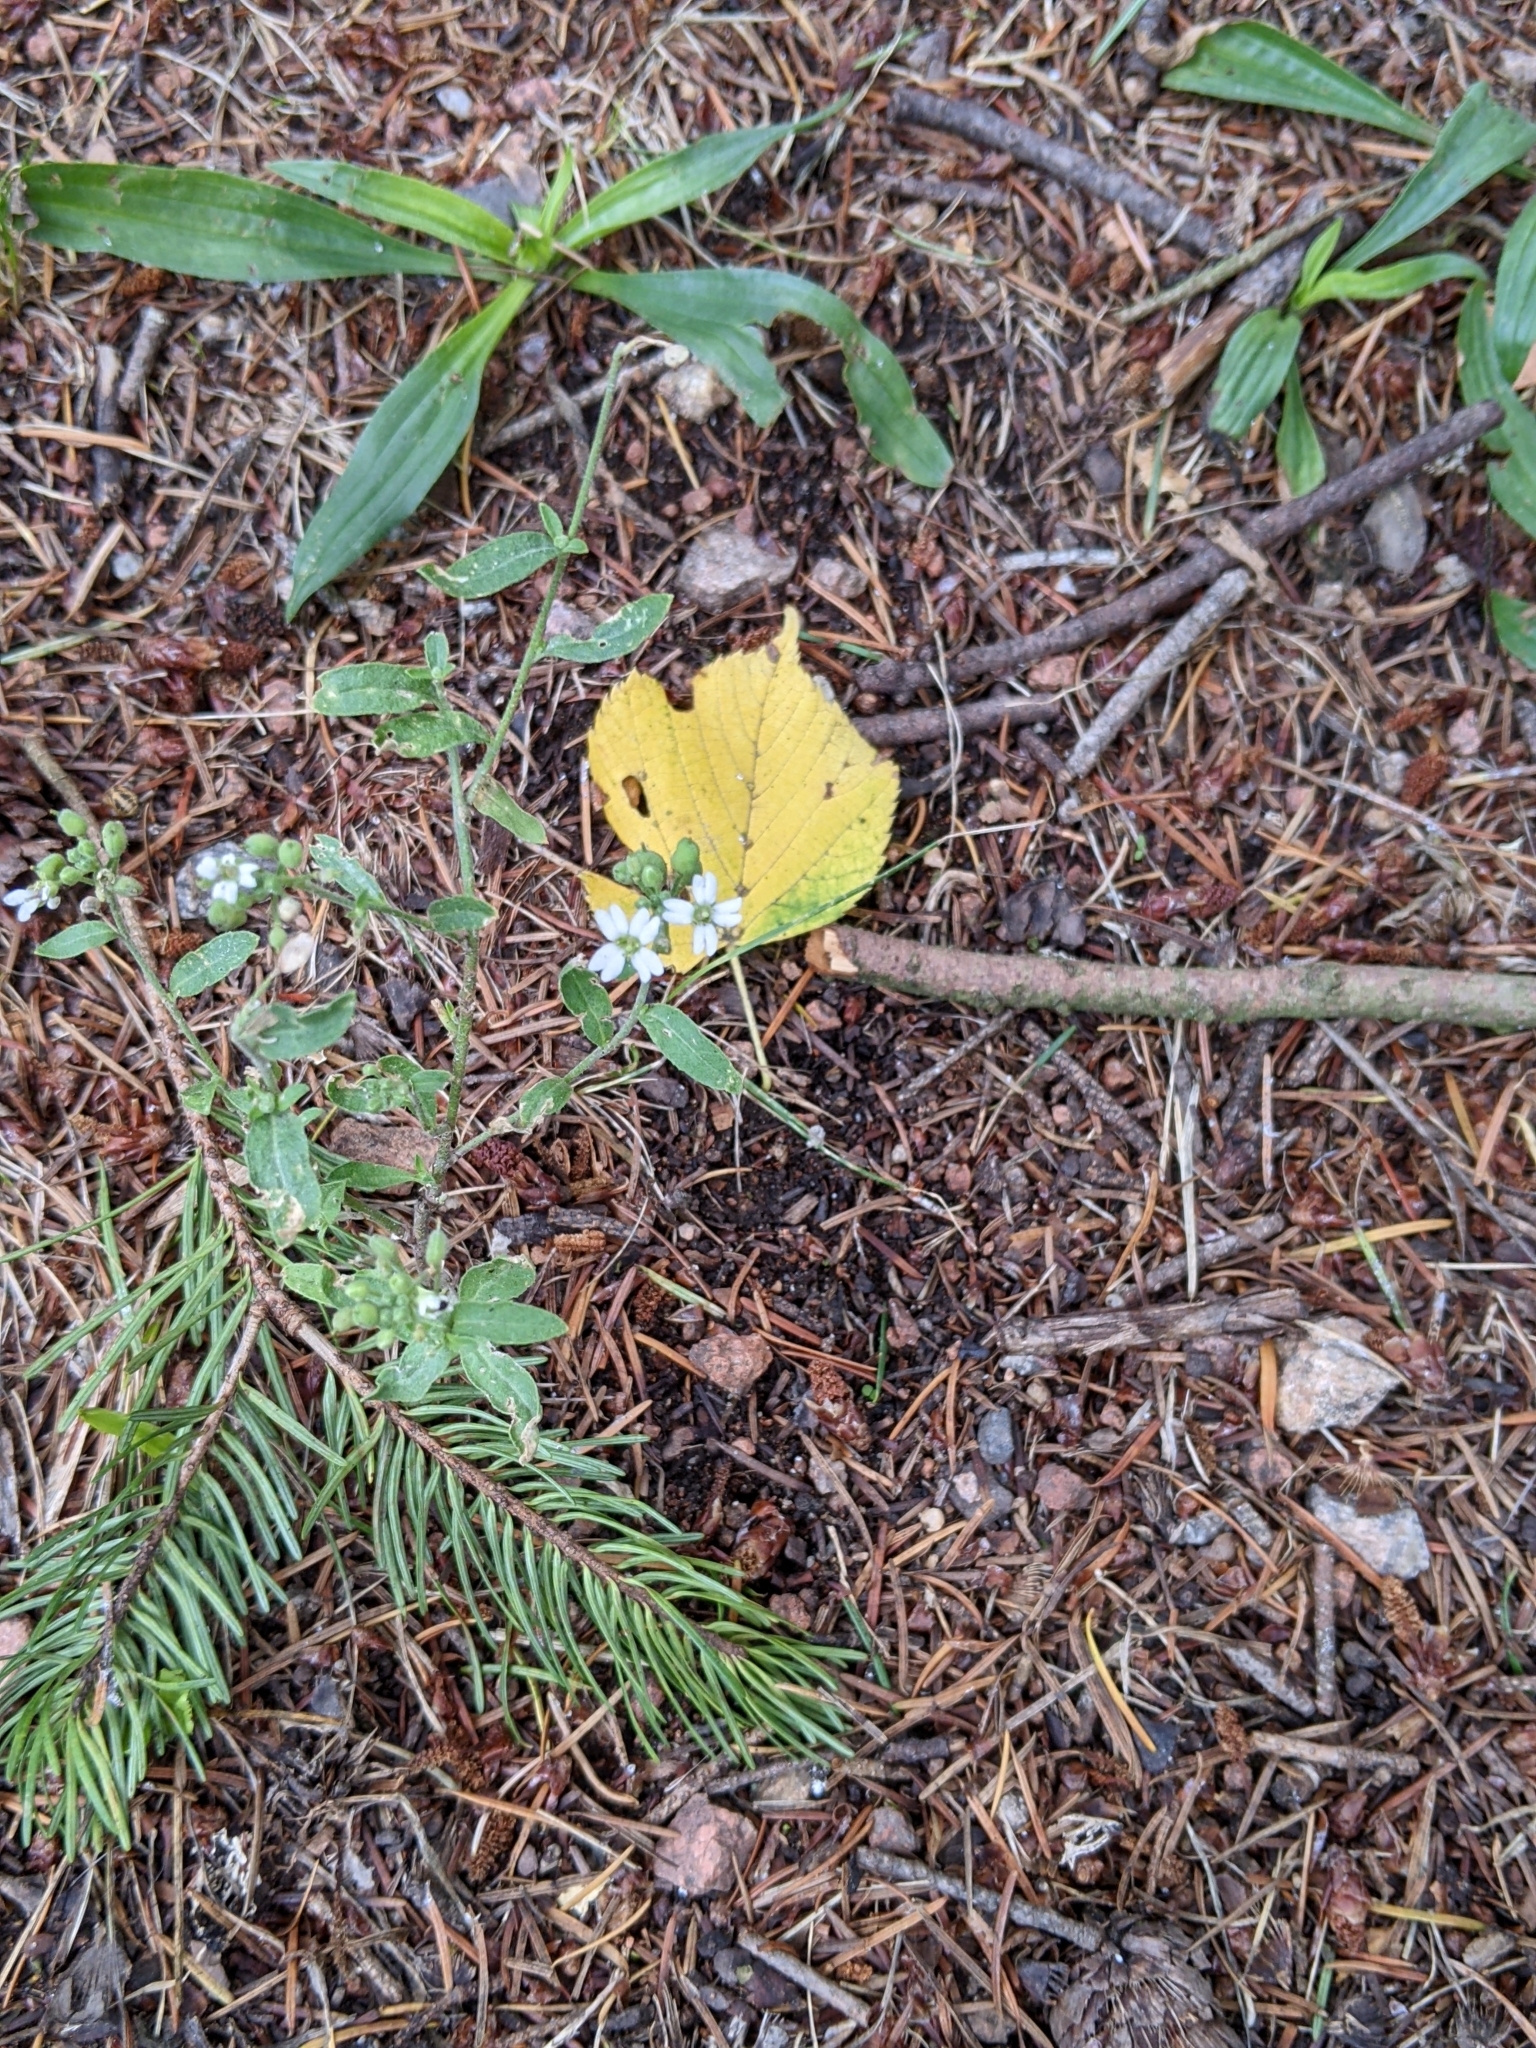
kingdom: Plantae
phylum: Tracheophyta
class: Magnoliopsida
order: Brassicales
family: Brassicaceae
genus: Berteroa
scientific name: Berteroa incana
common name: Hoary alison
